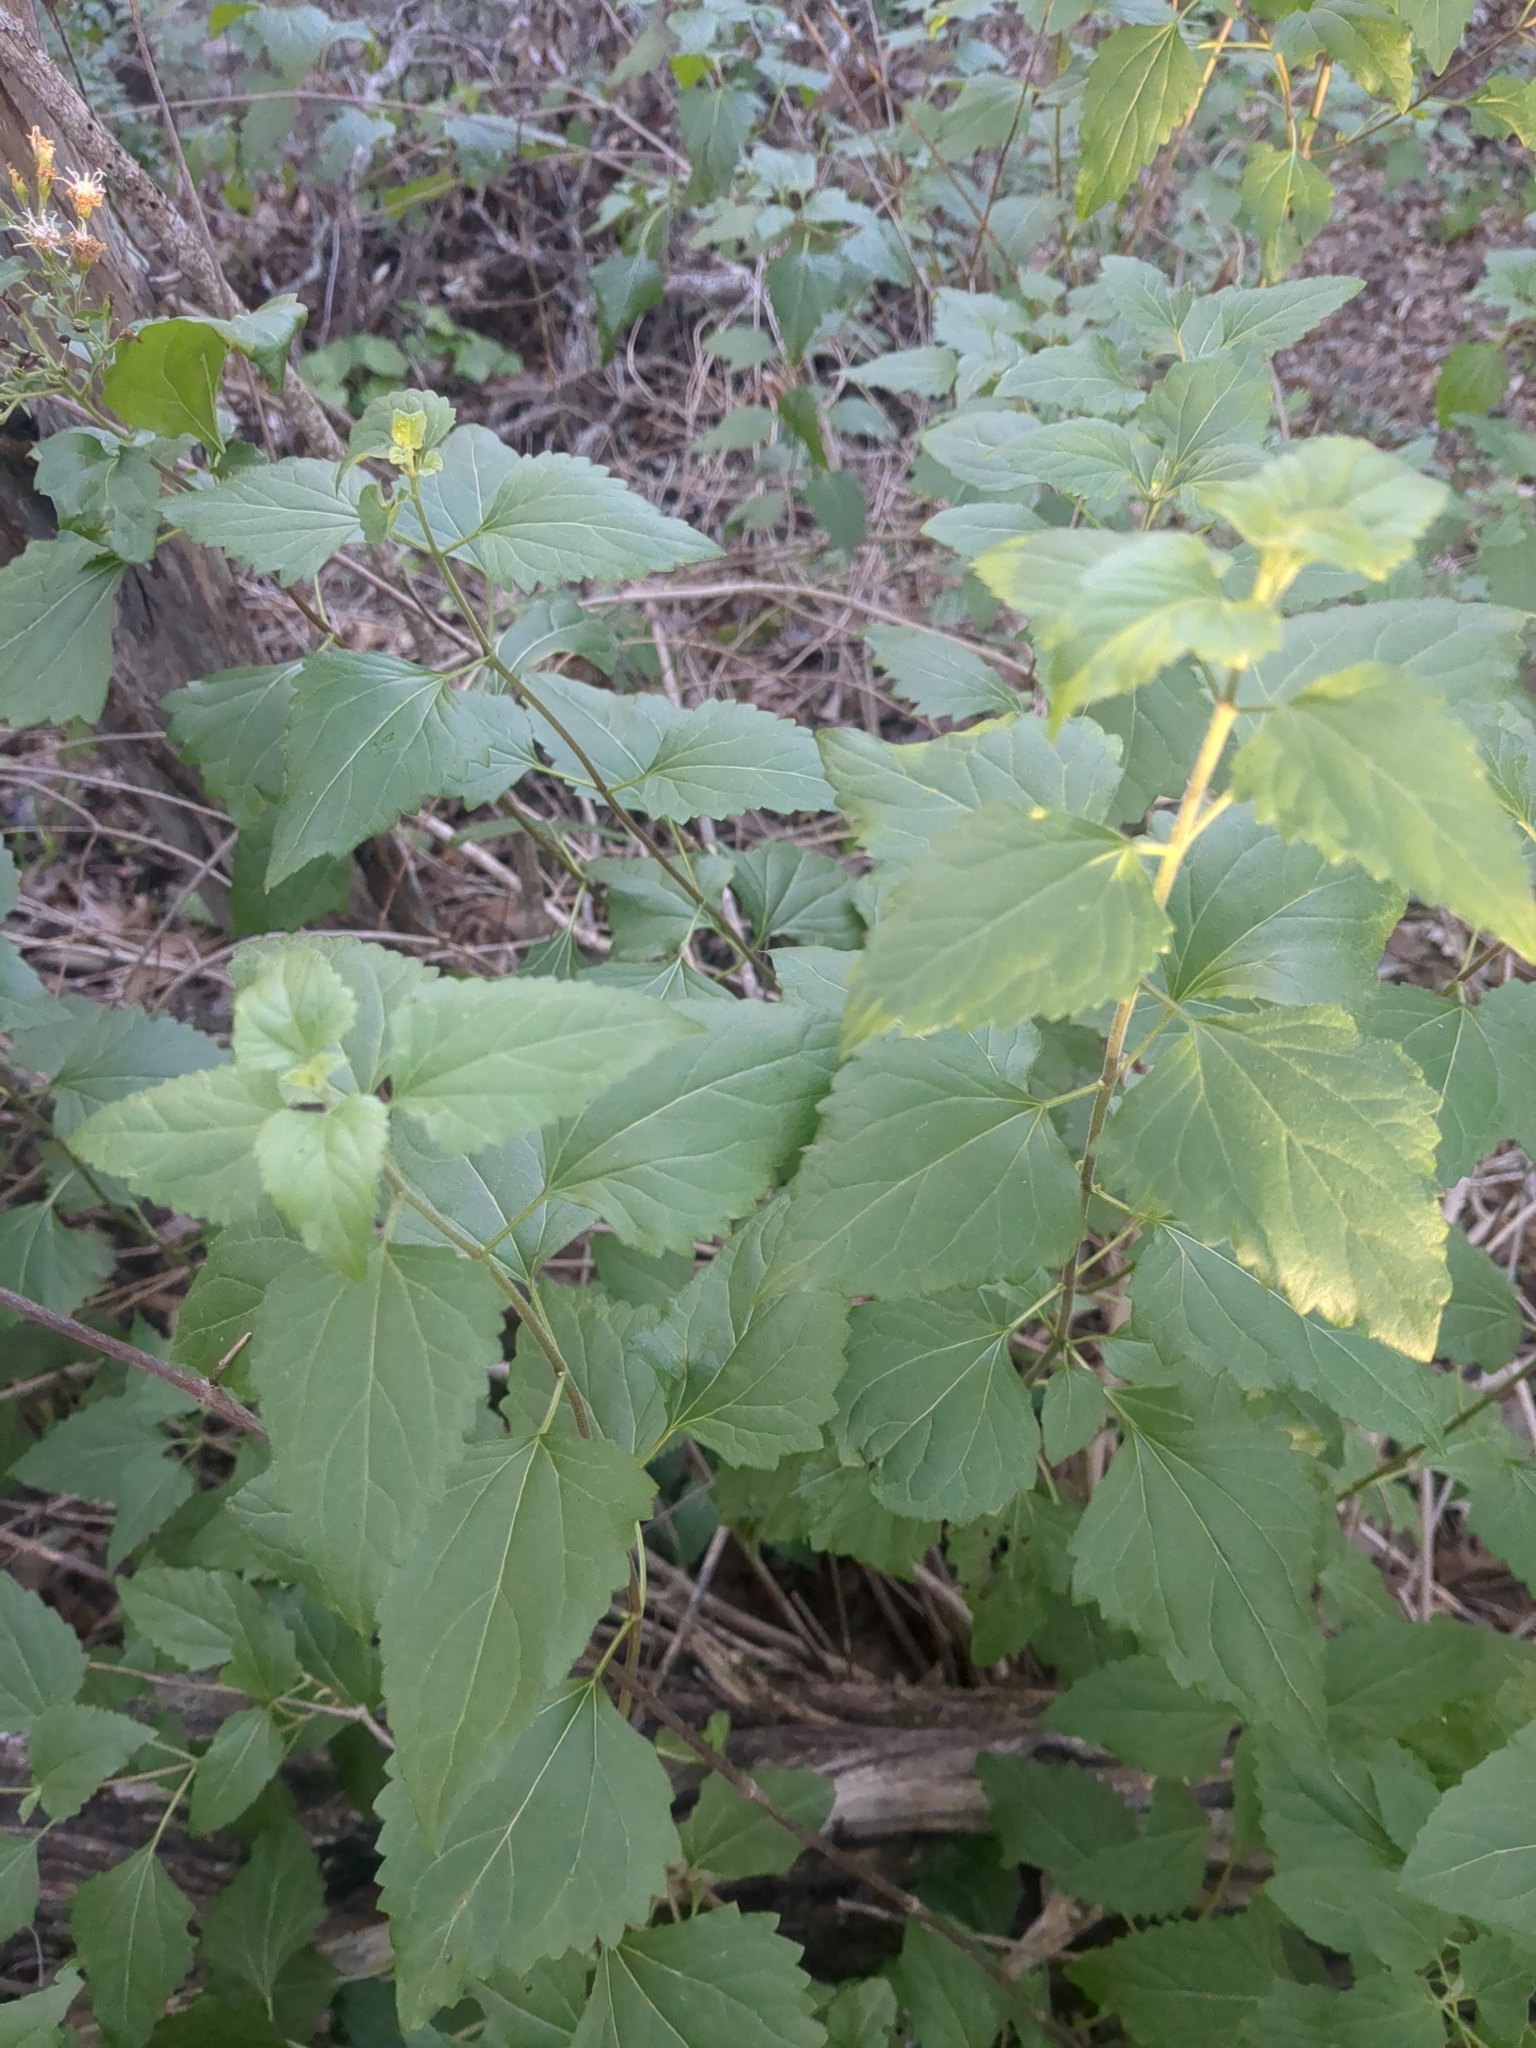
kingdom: Plantae
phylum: Tracheophyta
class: Magnoliopsida
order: Asterales
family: Asteraceae
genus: Ageratina
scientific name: Ageratina havanensis
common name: Havana snakeroot
